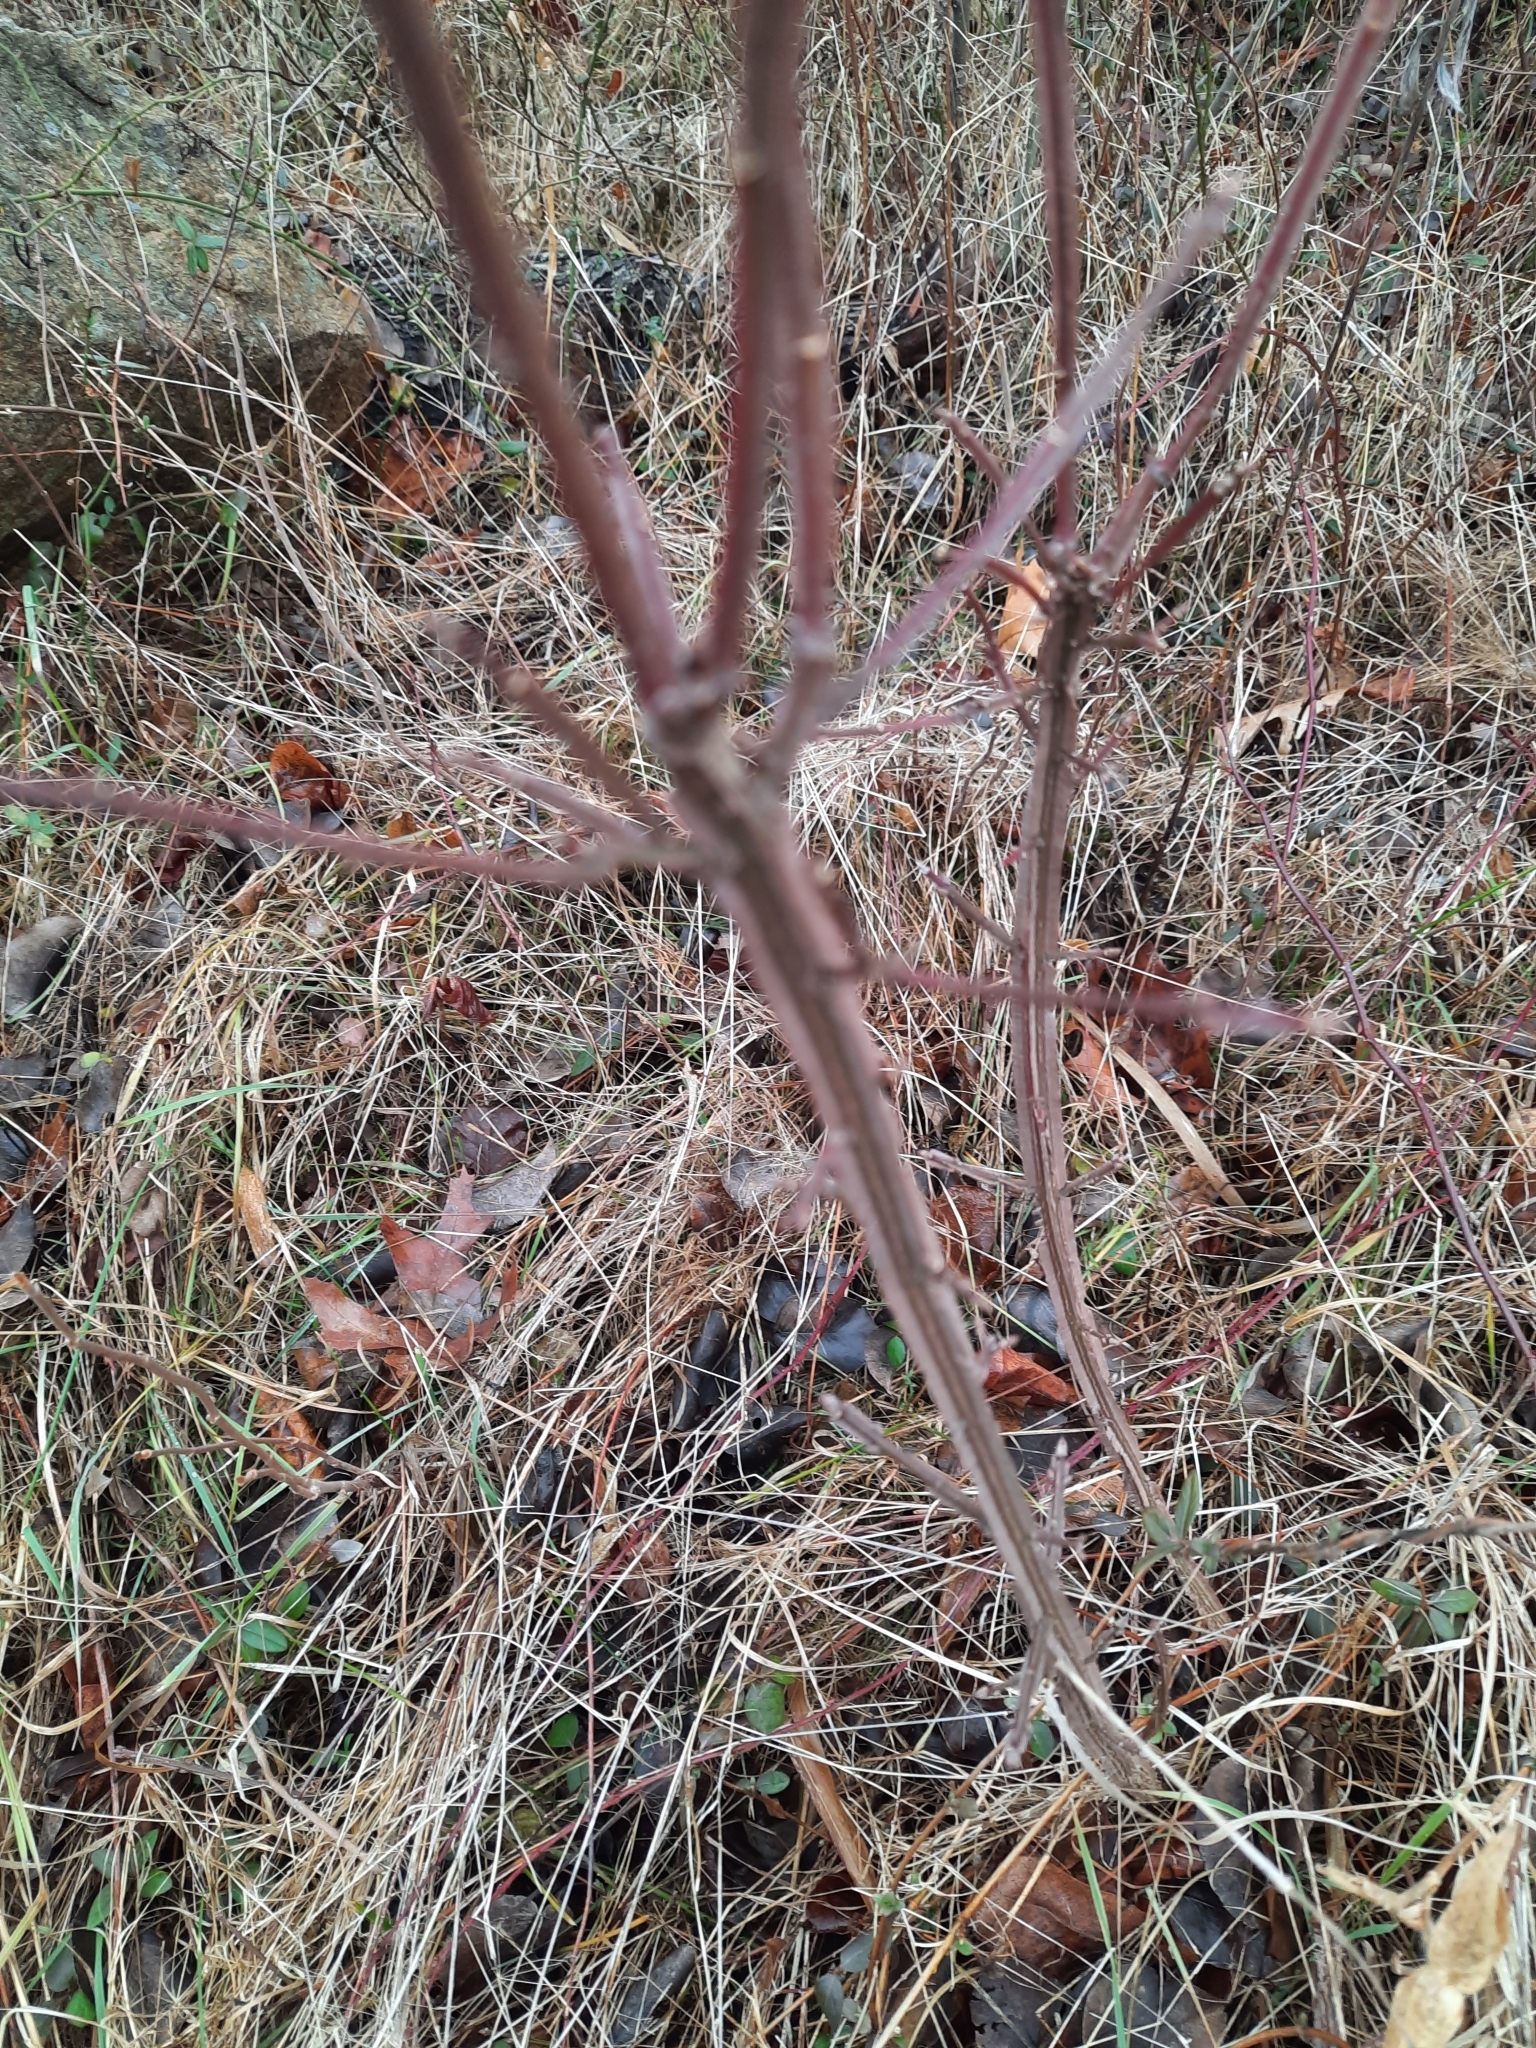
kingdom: Plantae
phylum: Tracheophyta
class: Magnoliopsida
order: Celastrales
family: Celastraceae
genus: Euonymus
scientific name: Euonymus alatus
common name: Winged euonymus
